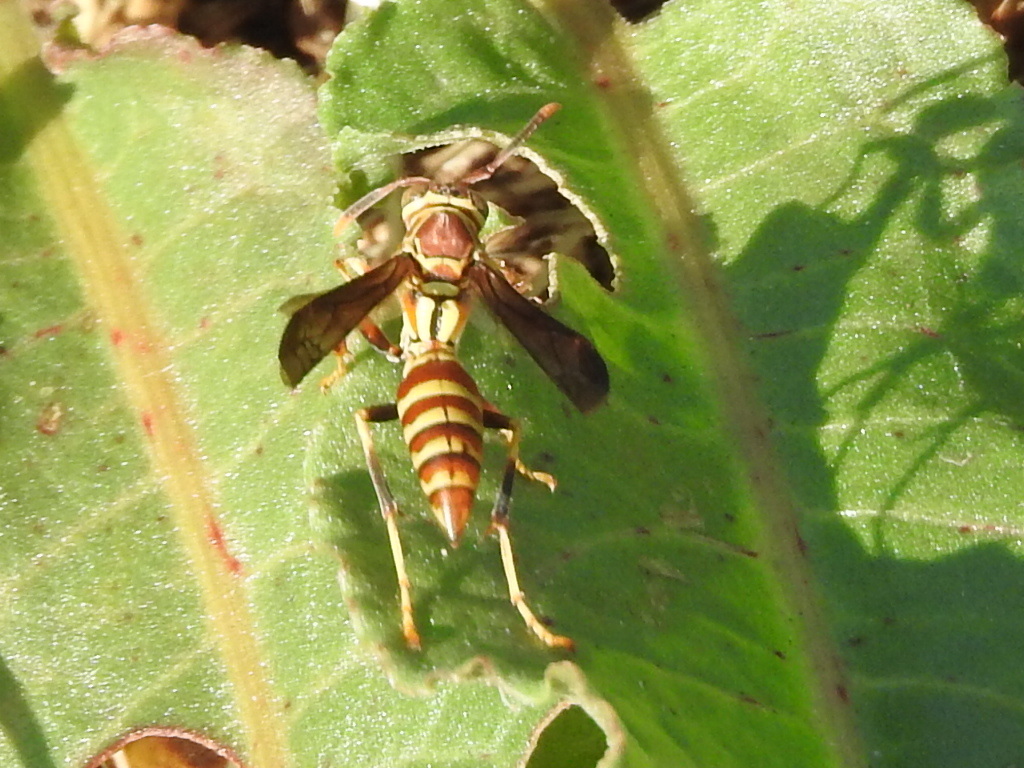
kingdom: Animalia
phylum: Arthropoda
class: Insecta
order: Hymenoptera
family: Eumenidae
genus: Polistes
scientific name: Polistes exclamans
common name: Paper wasp
